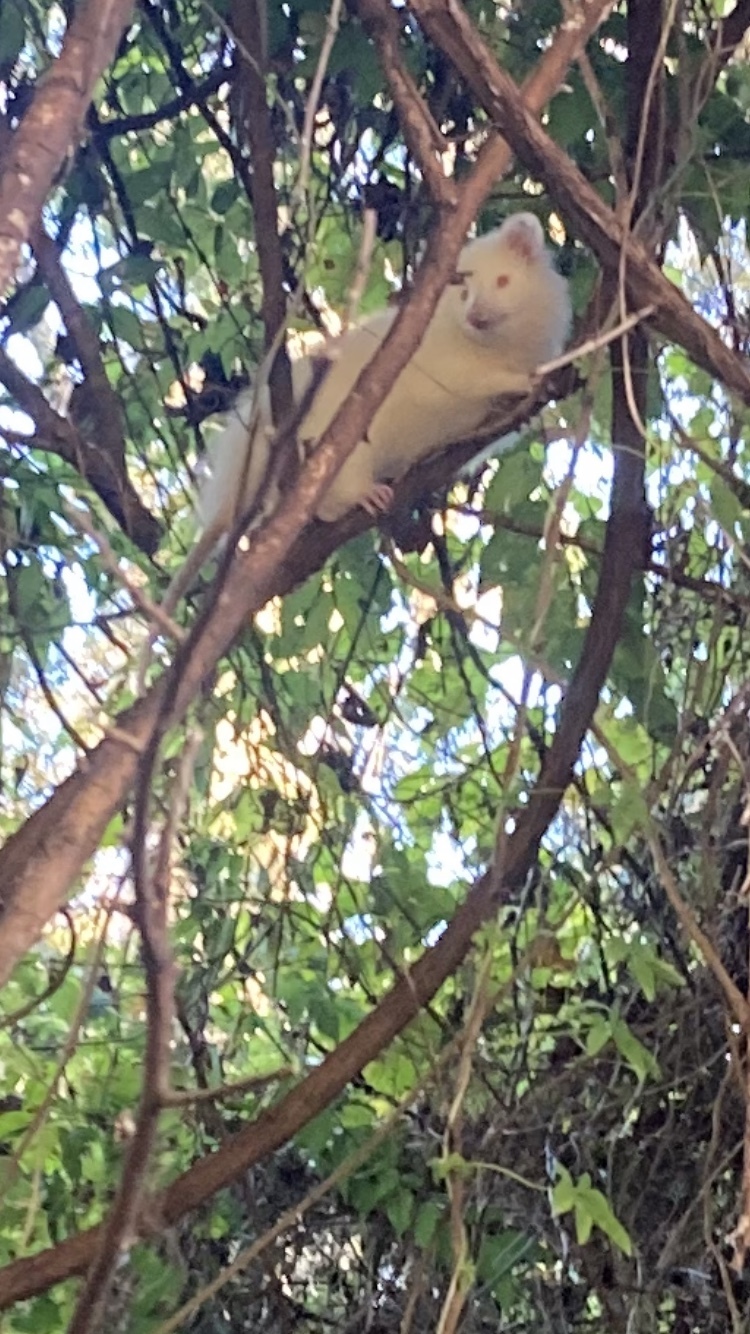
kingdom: Animalia
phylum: Chordata
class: Mammalia
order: Didelphimorphia
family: Didelphidae
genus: Didelphis
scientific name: Didelphis virginiana
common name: Virginia opossum
